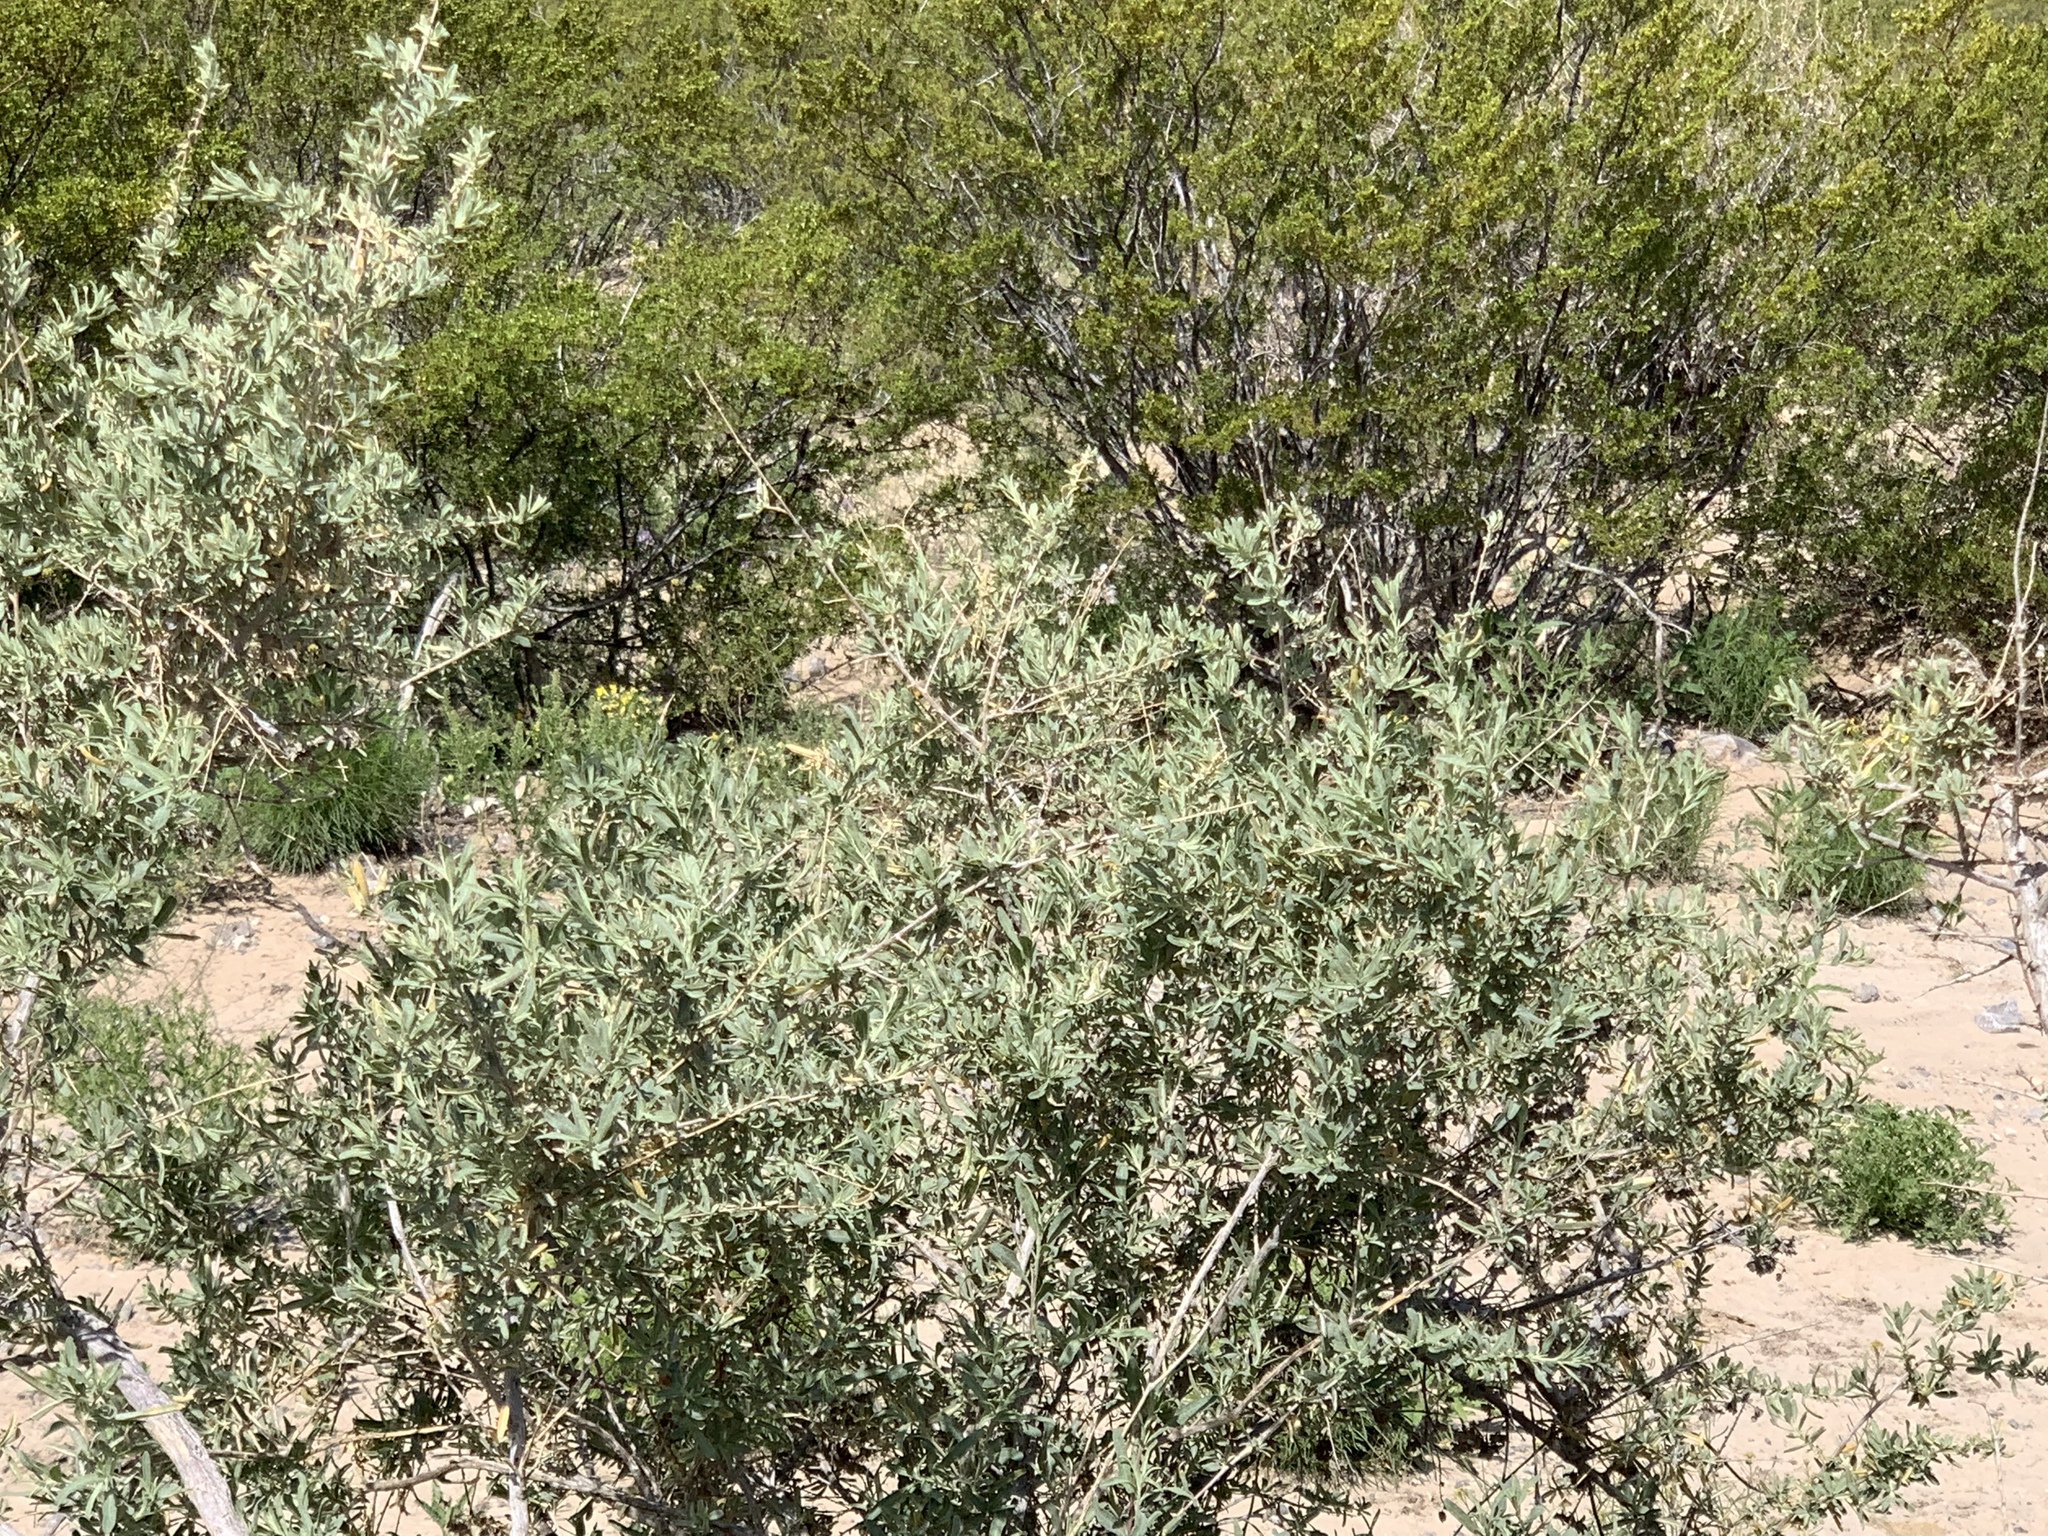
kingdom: Plantae
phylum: Tracheophyta
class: Magnoliopsida
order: Caryophyllales
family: Amaranthaceae
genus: Atriplex
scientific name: Atriplex canescens
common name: Four-wing saltbush
